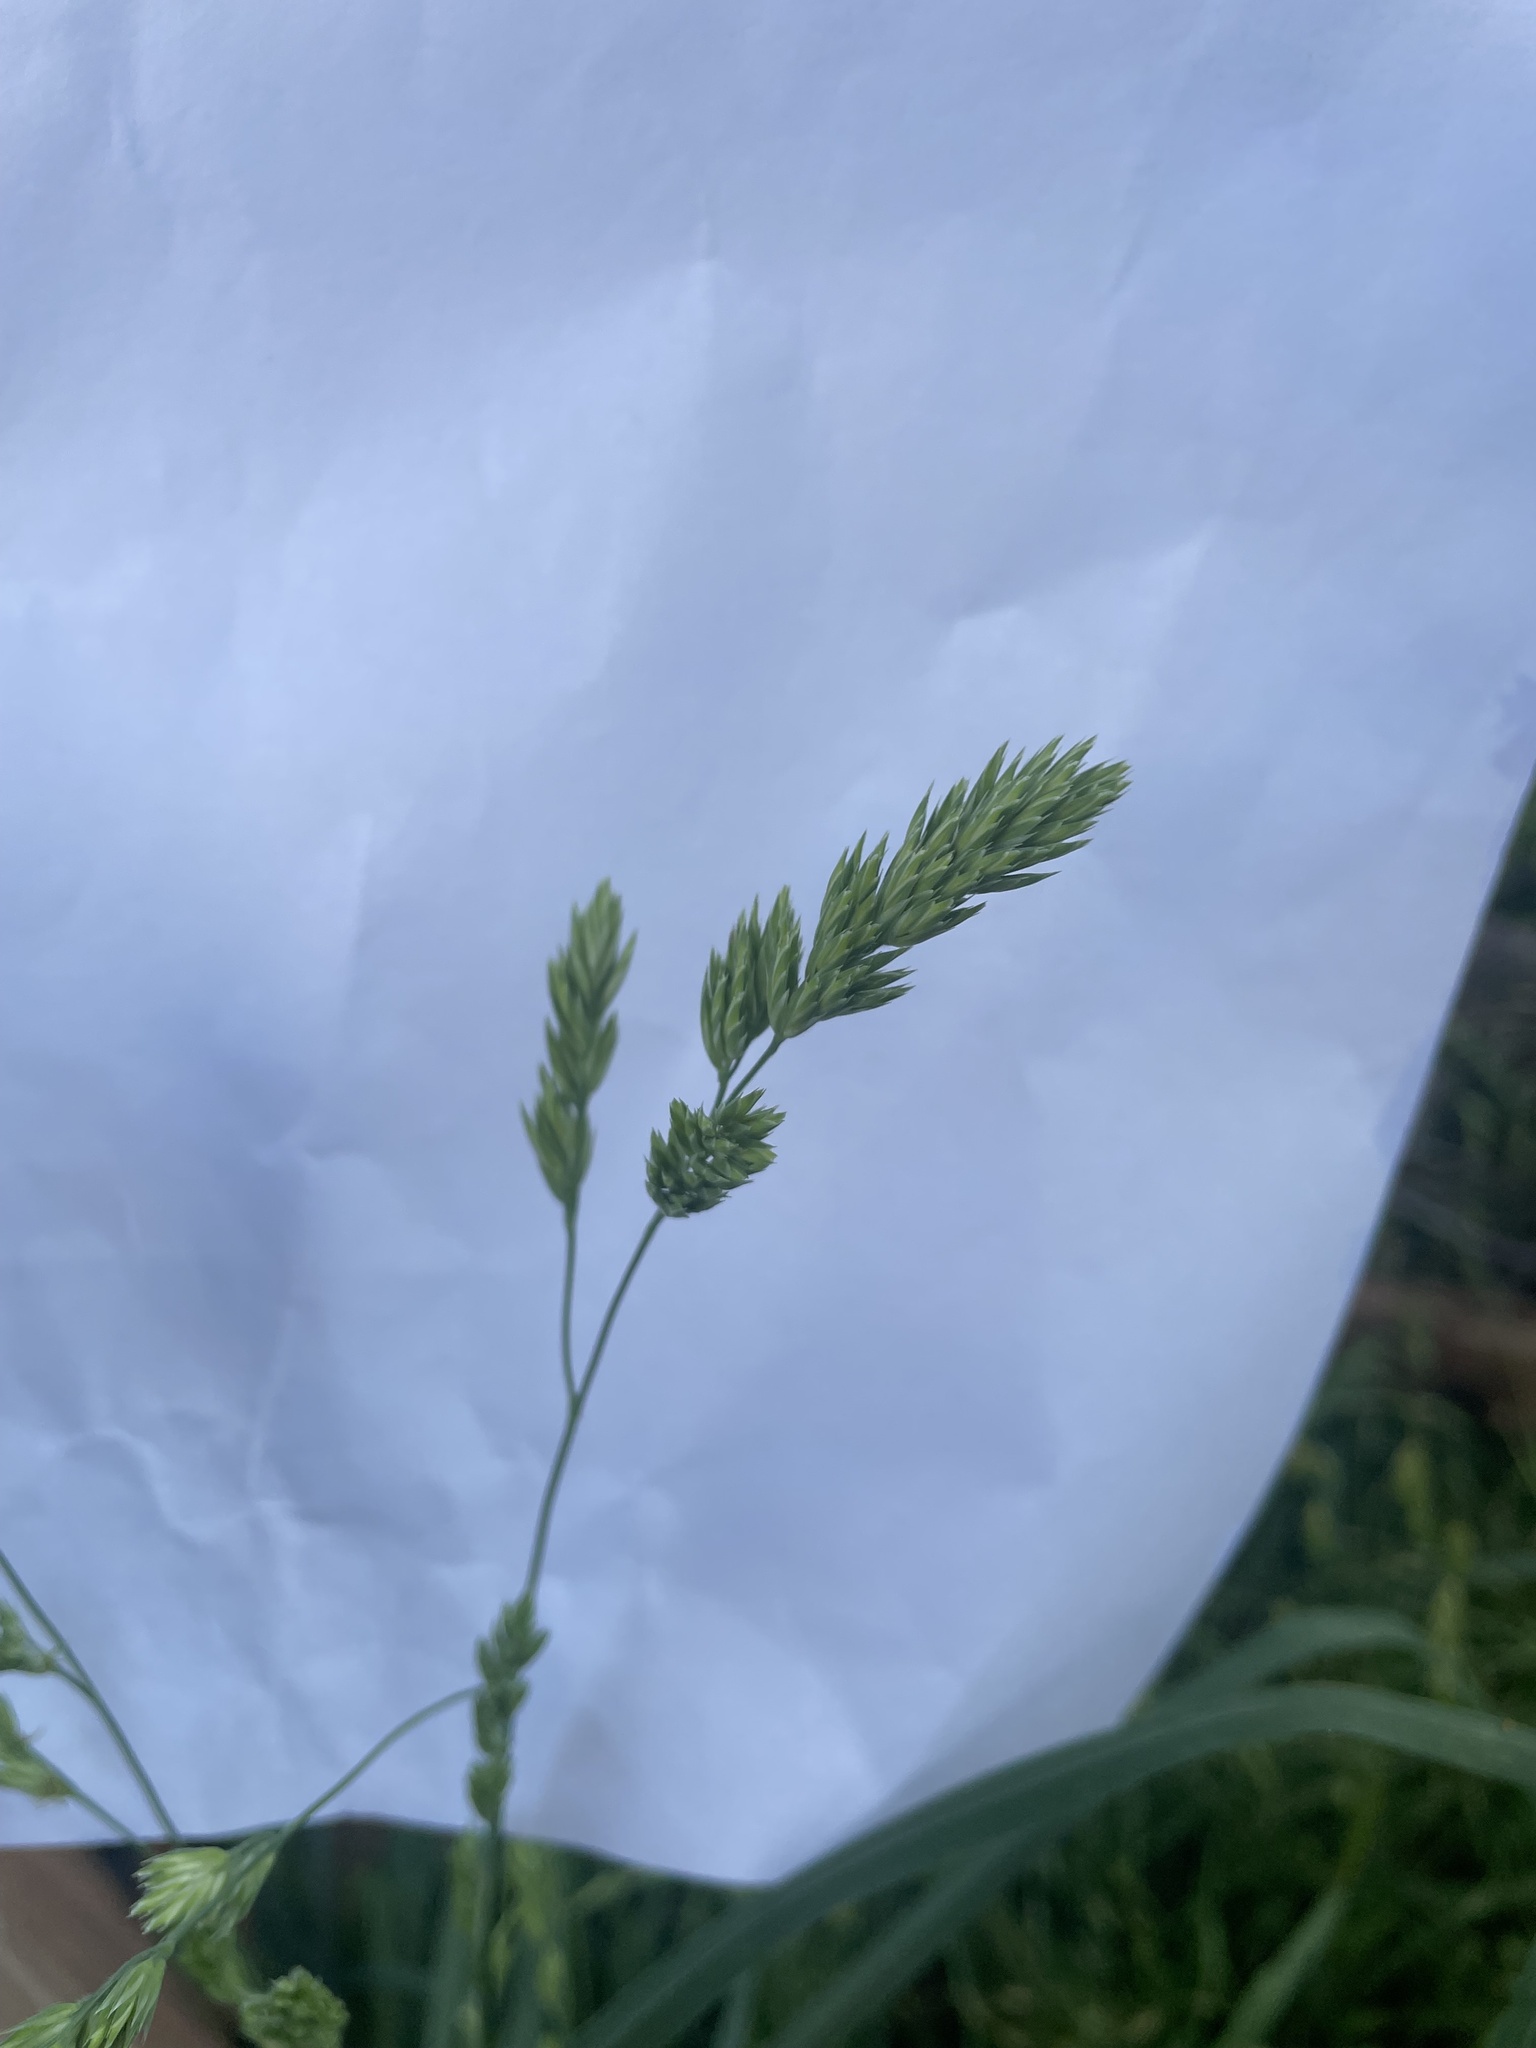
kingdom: Plantae
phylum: Tracheophyta
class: Liliopsida
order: Poales
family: Poaceae
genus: Dactylis
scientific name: Dactylis glomerata
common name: Orchardgrass
